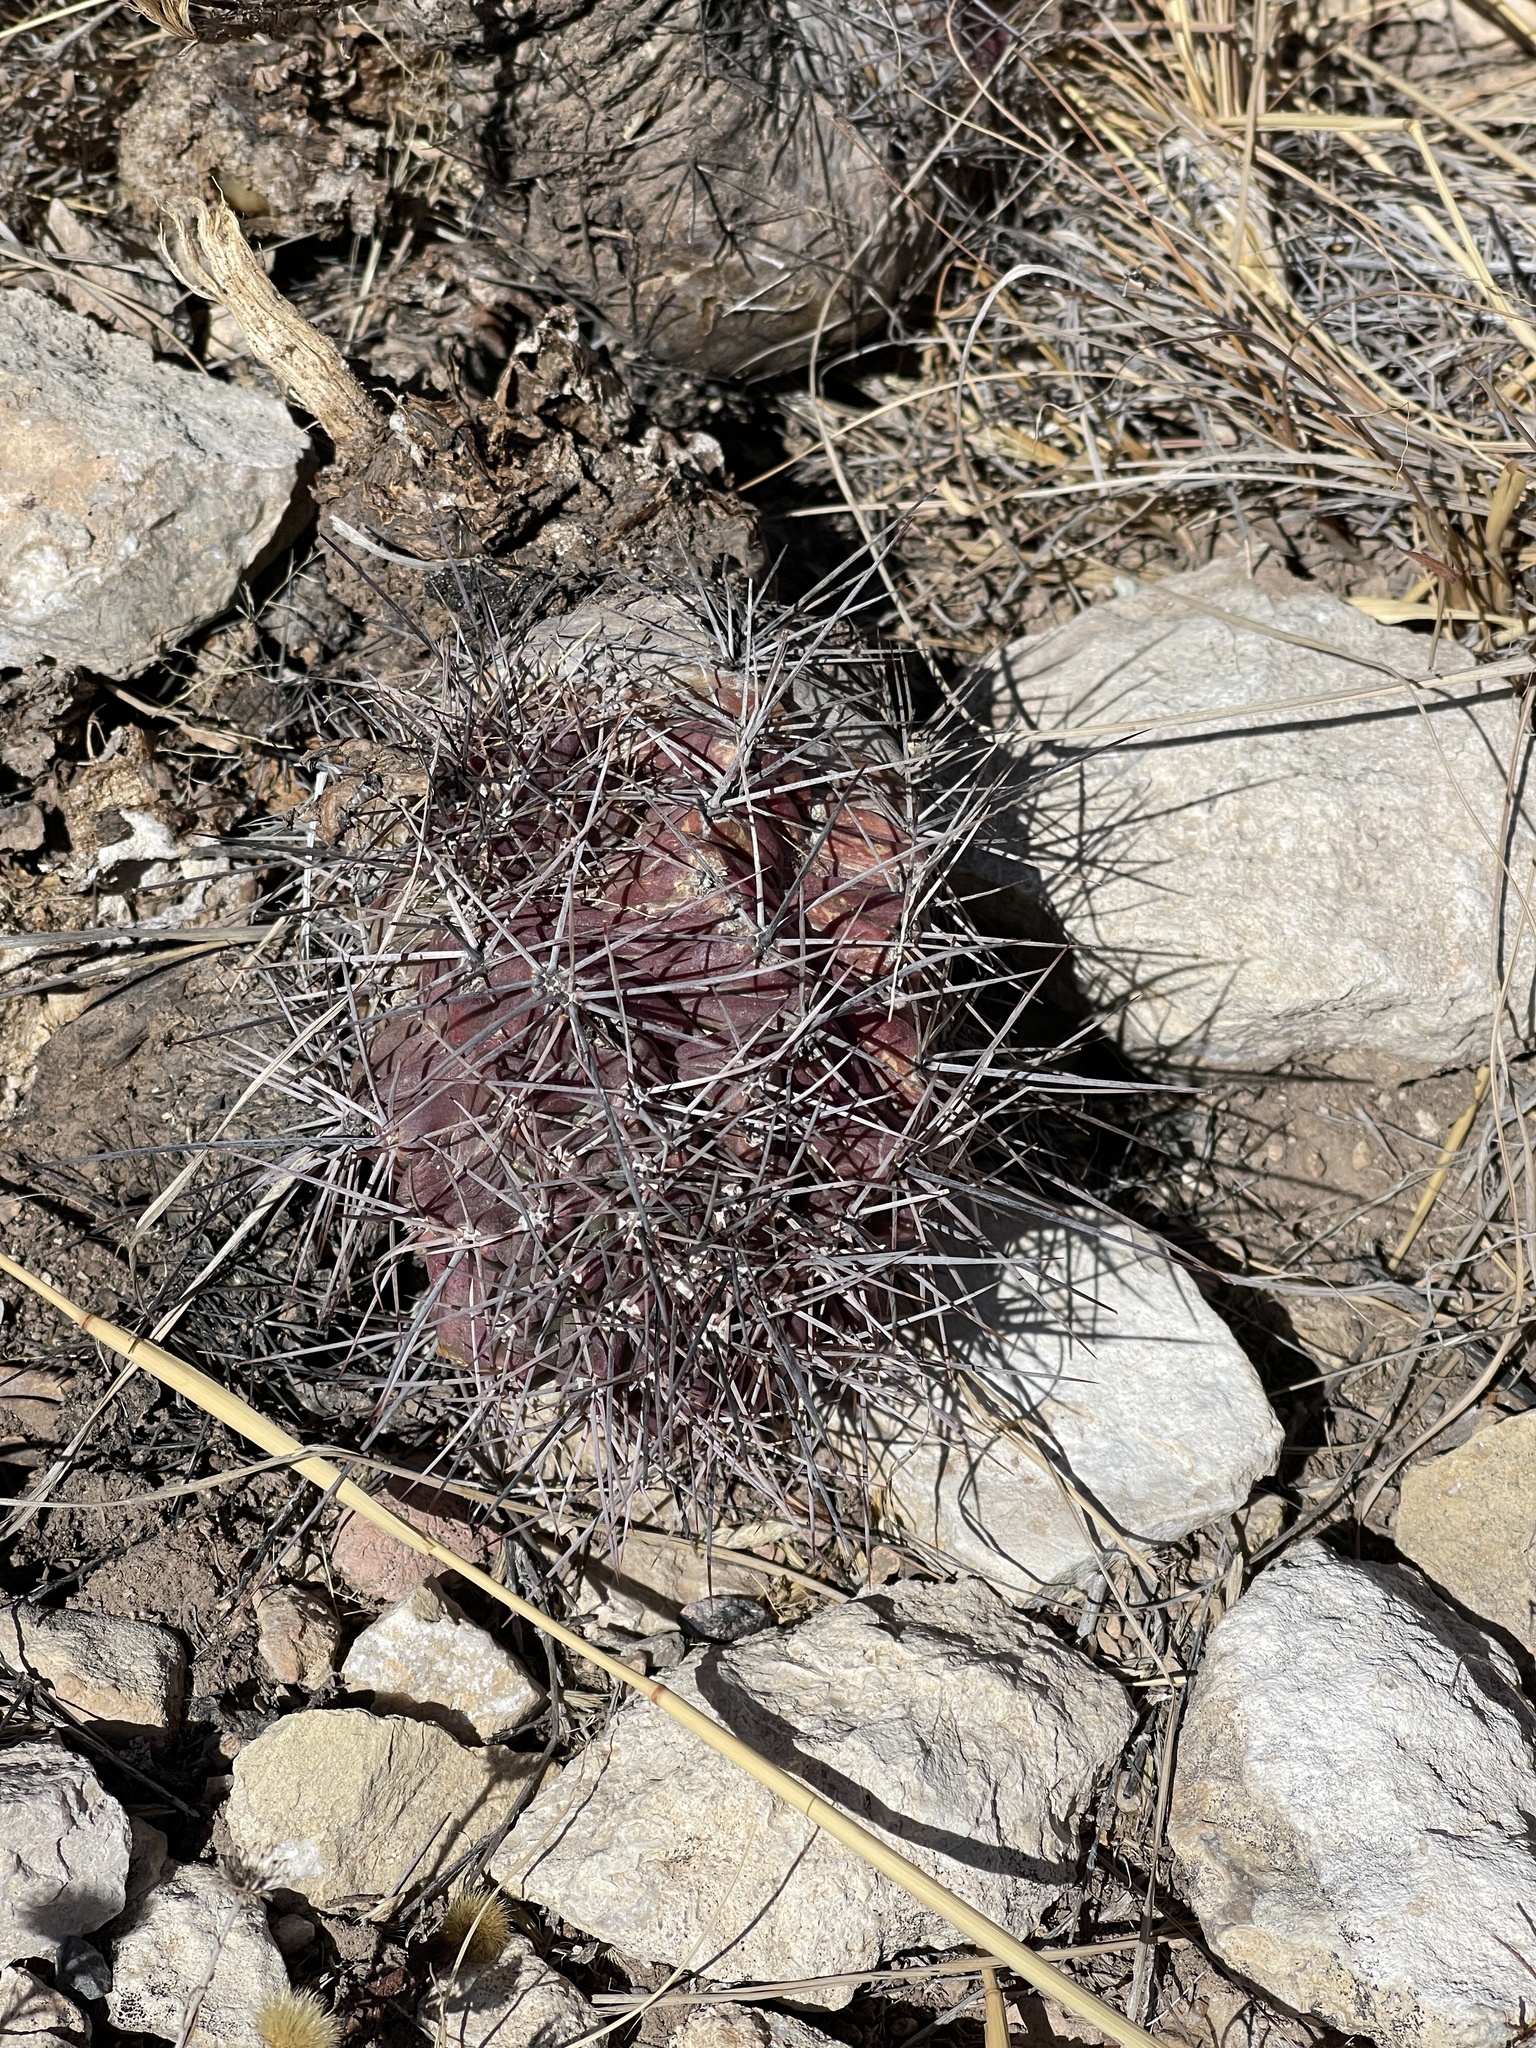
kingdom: Plantae
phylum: Tracheophyta
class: Magnoliopsida
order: Caryophyllales
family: Cactaceae
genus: Echinocereus
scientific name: Echinocereus coccineus
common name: Scarlet hedgehog cactus
